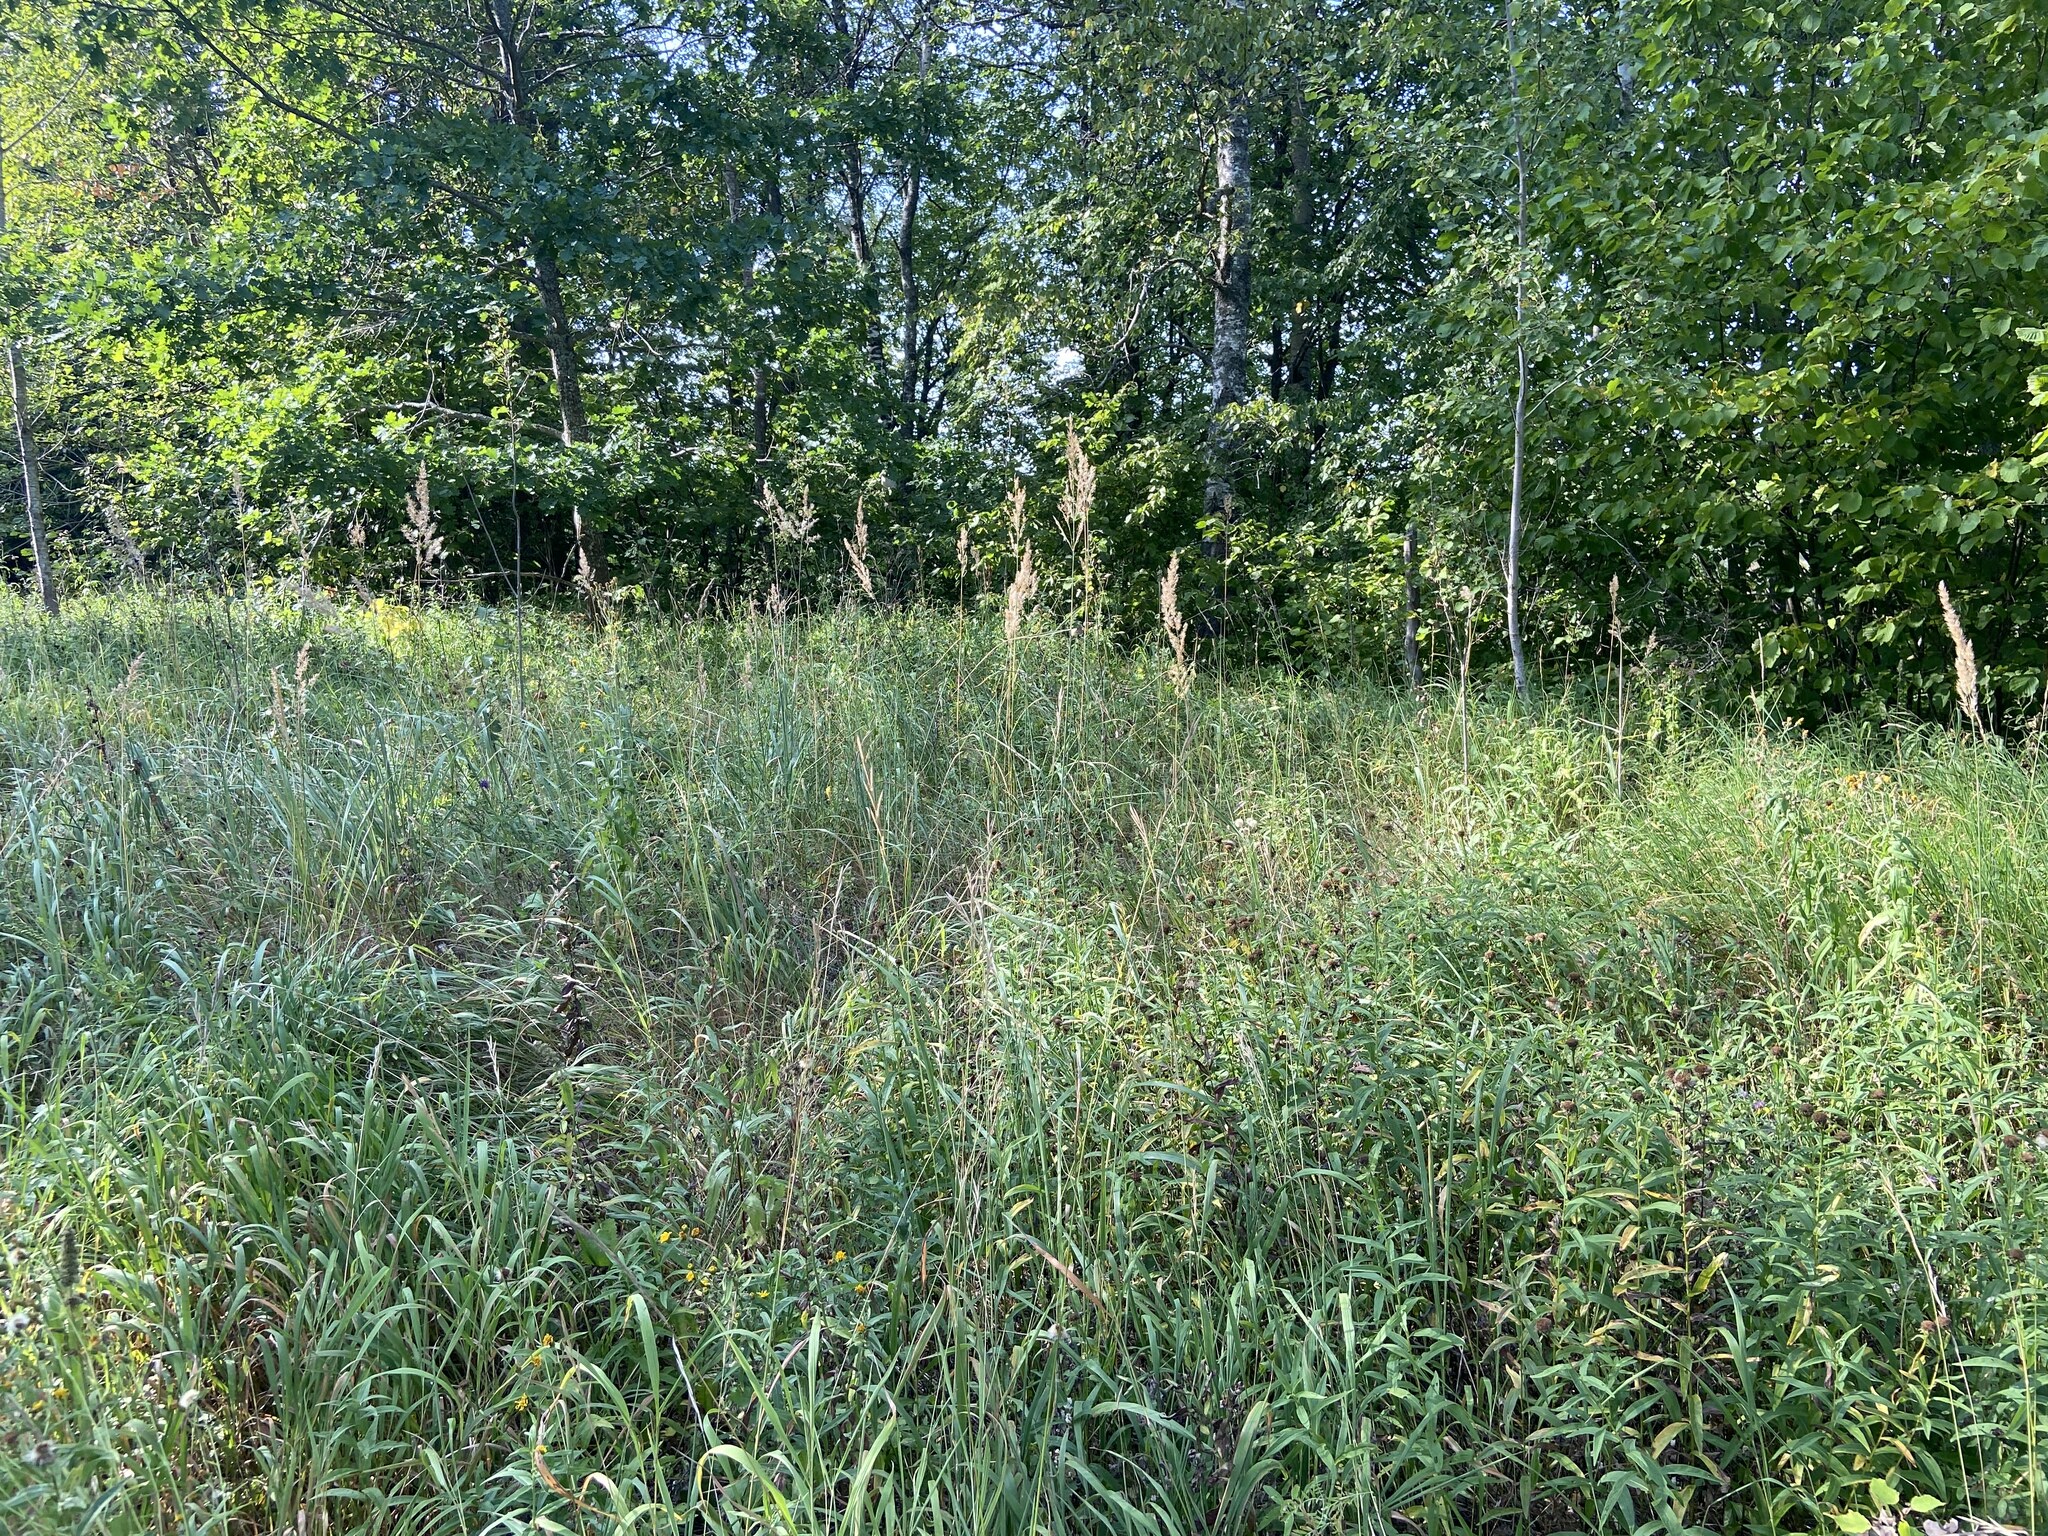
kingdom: Plantae
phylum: Tracheophyta
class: Liliopsida
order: Poales
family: Poaceae
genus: Calamagrostis
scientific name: Calamagrostis epigejos
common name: Wood small-reed
